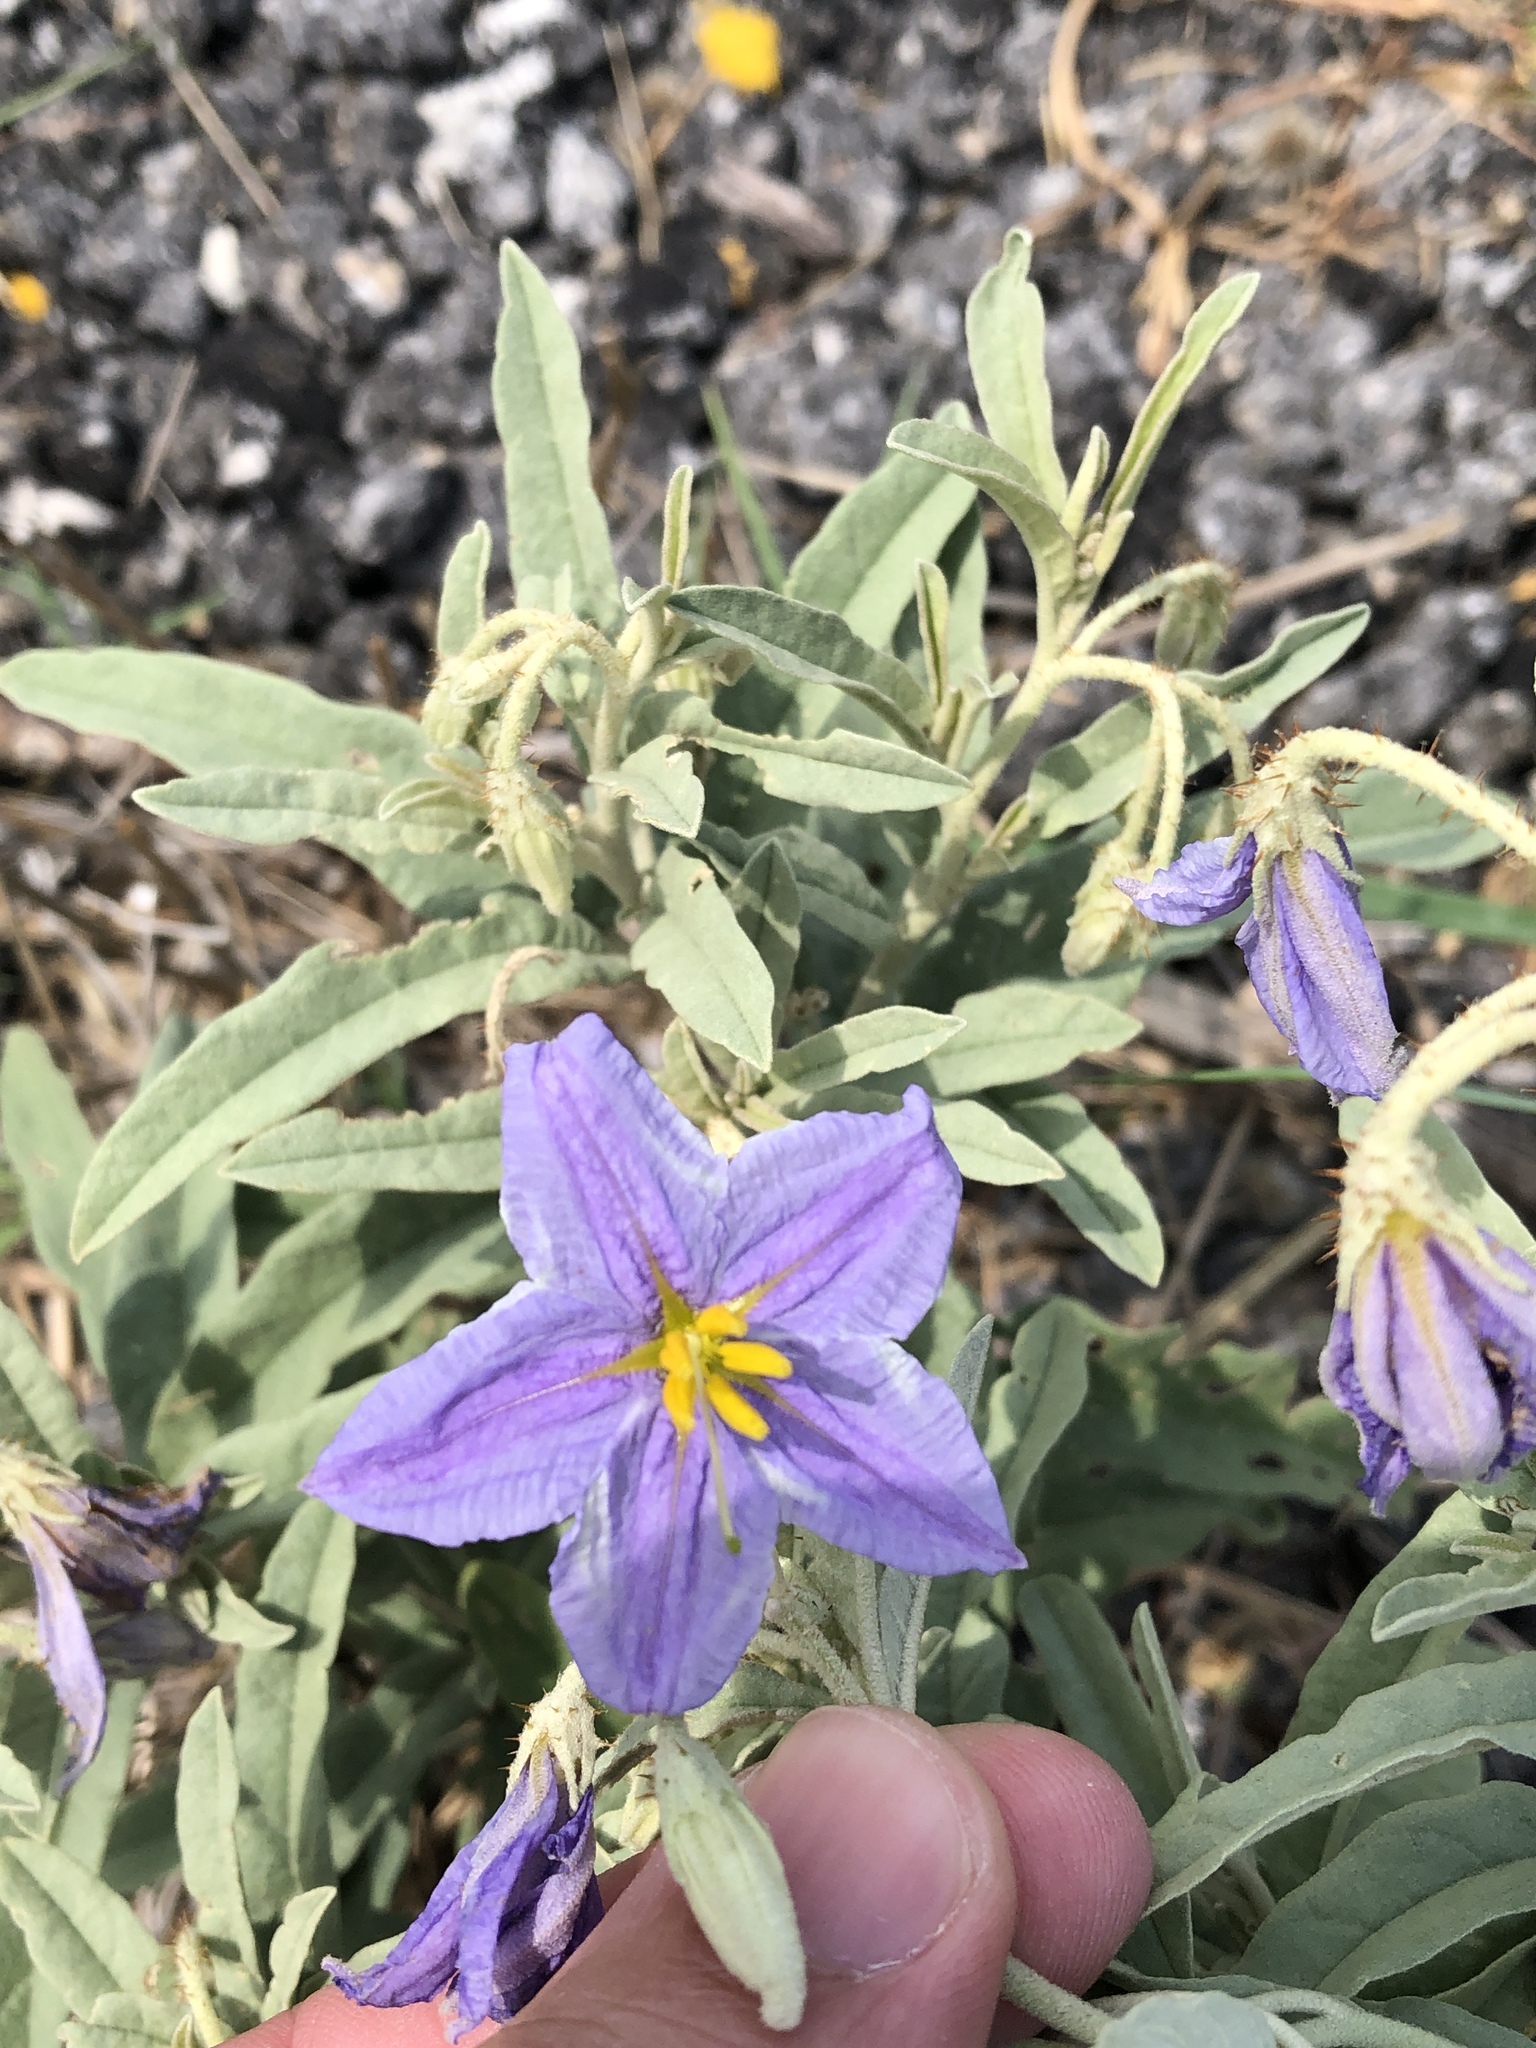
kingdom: Plantae
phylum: Tracheophyta
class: Magnoliopsida
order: Solanales
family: Solanaceae
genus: Solanum
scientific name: Solanum elaeagnifolium
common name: Silverleaf nightshade
